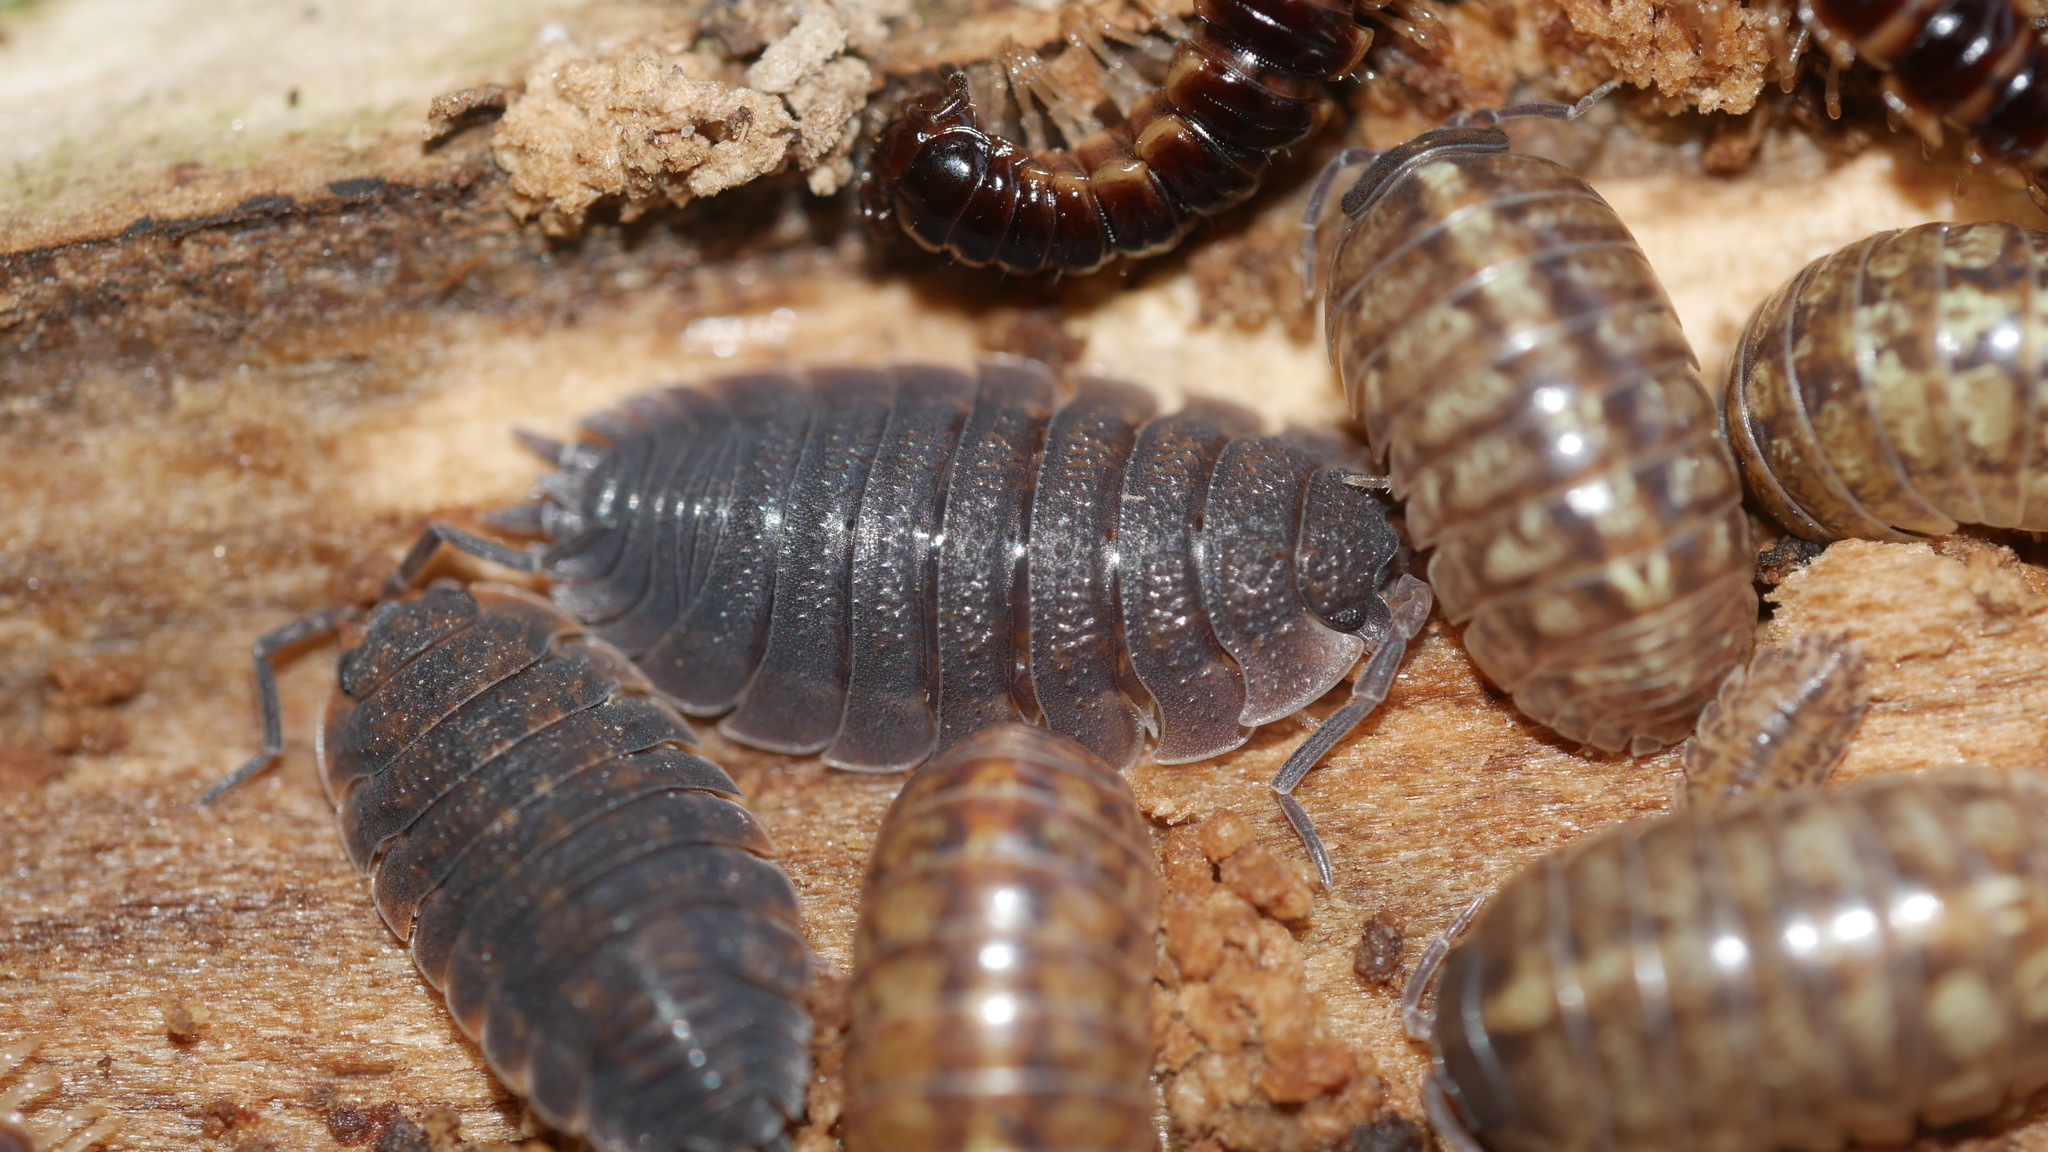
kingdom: Animalia
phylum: Arthropoda
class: Malacostraca
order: Isopoda
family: Porcellionidae
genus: Porcellio
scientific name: Porcellio scaber
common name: Common rough woodlouse
